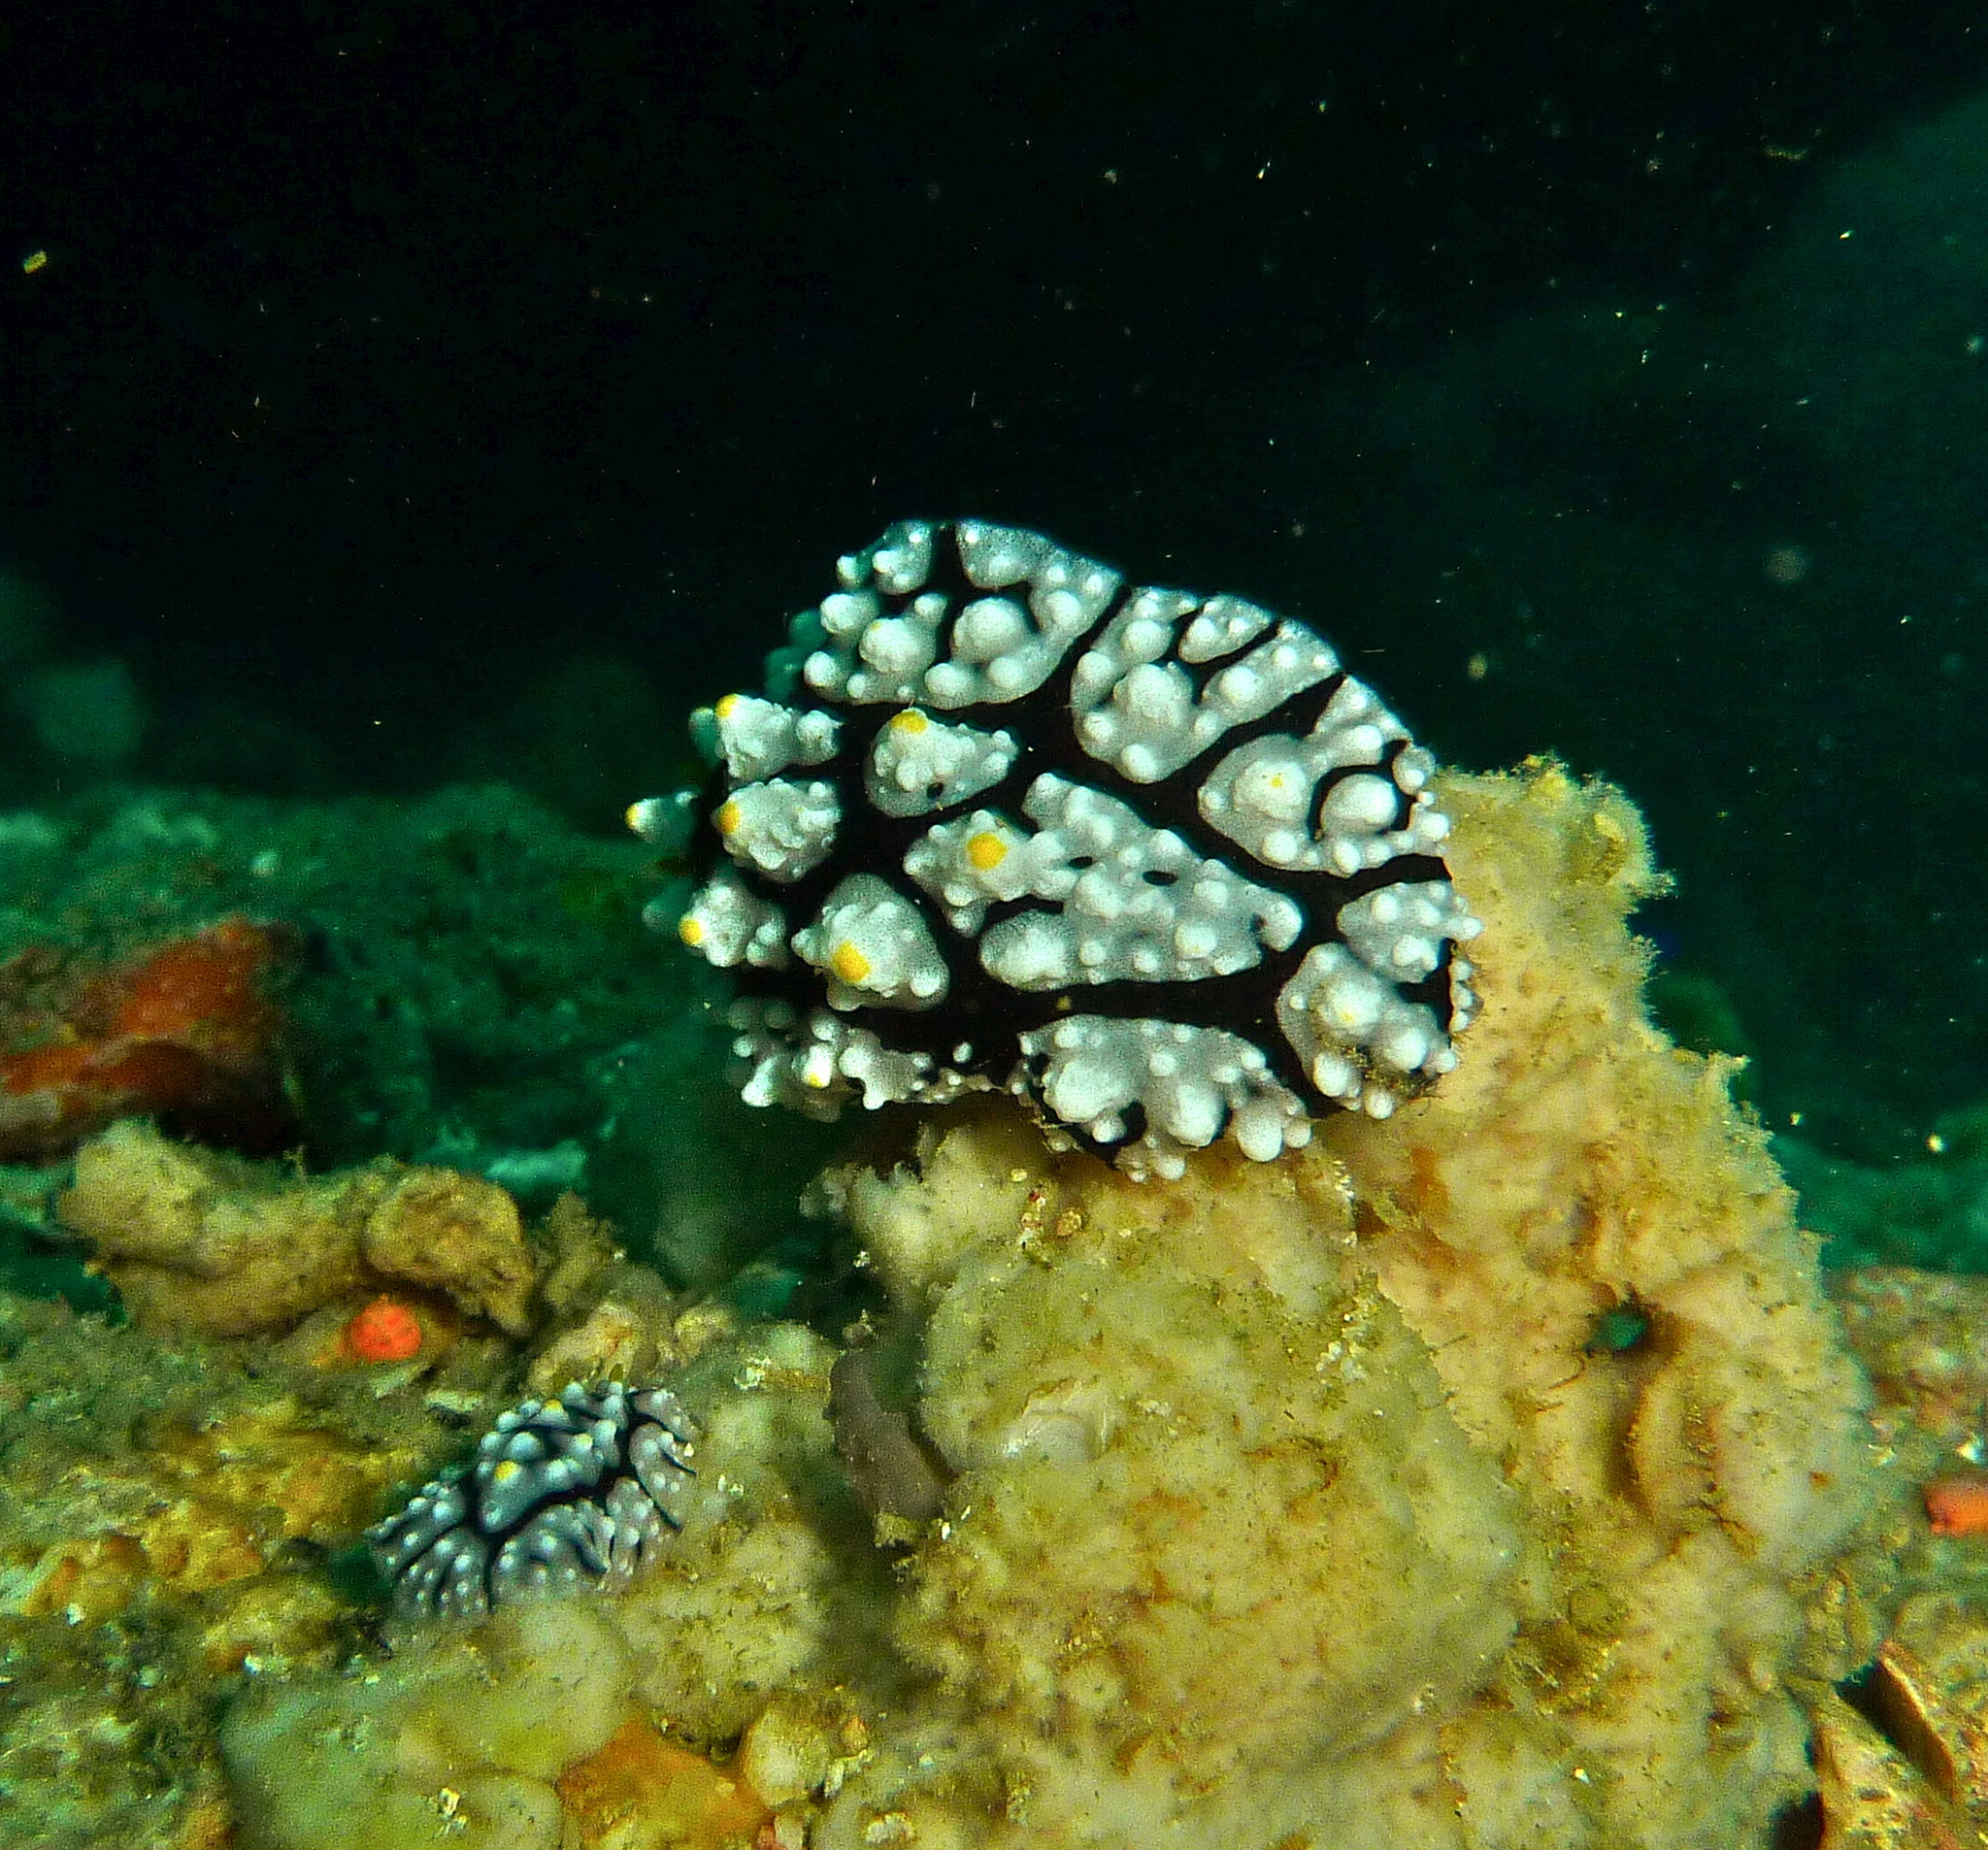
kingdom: Animalia
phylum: Mollusca
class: Gastropoda
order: Nudibranchia
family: Phyllidiidae
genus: Phyllidia
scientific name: Phyllidia elegans
